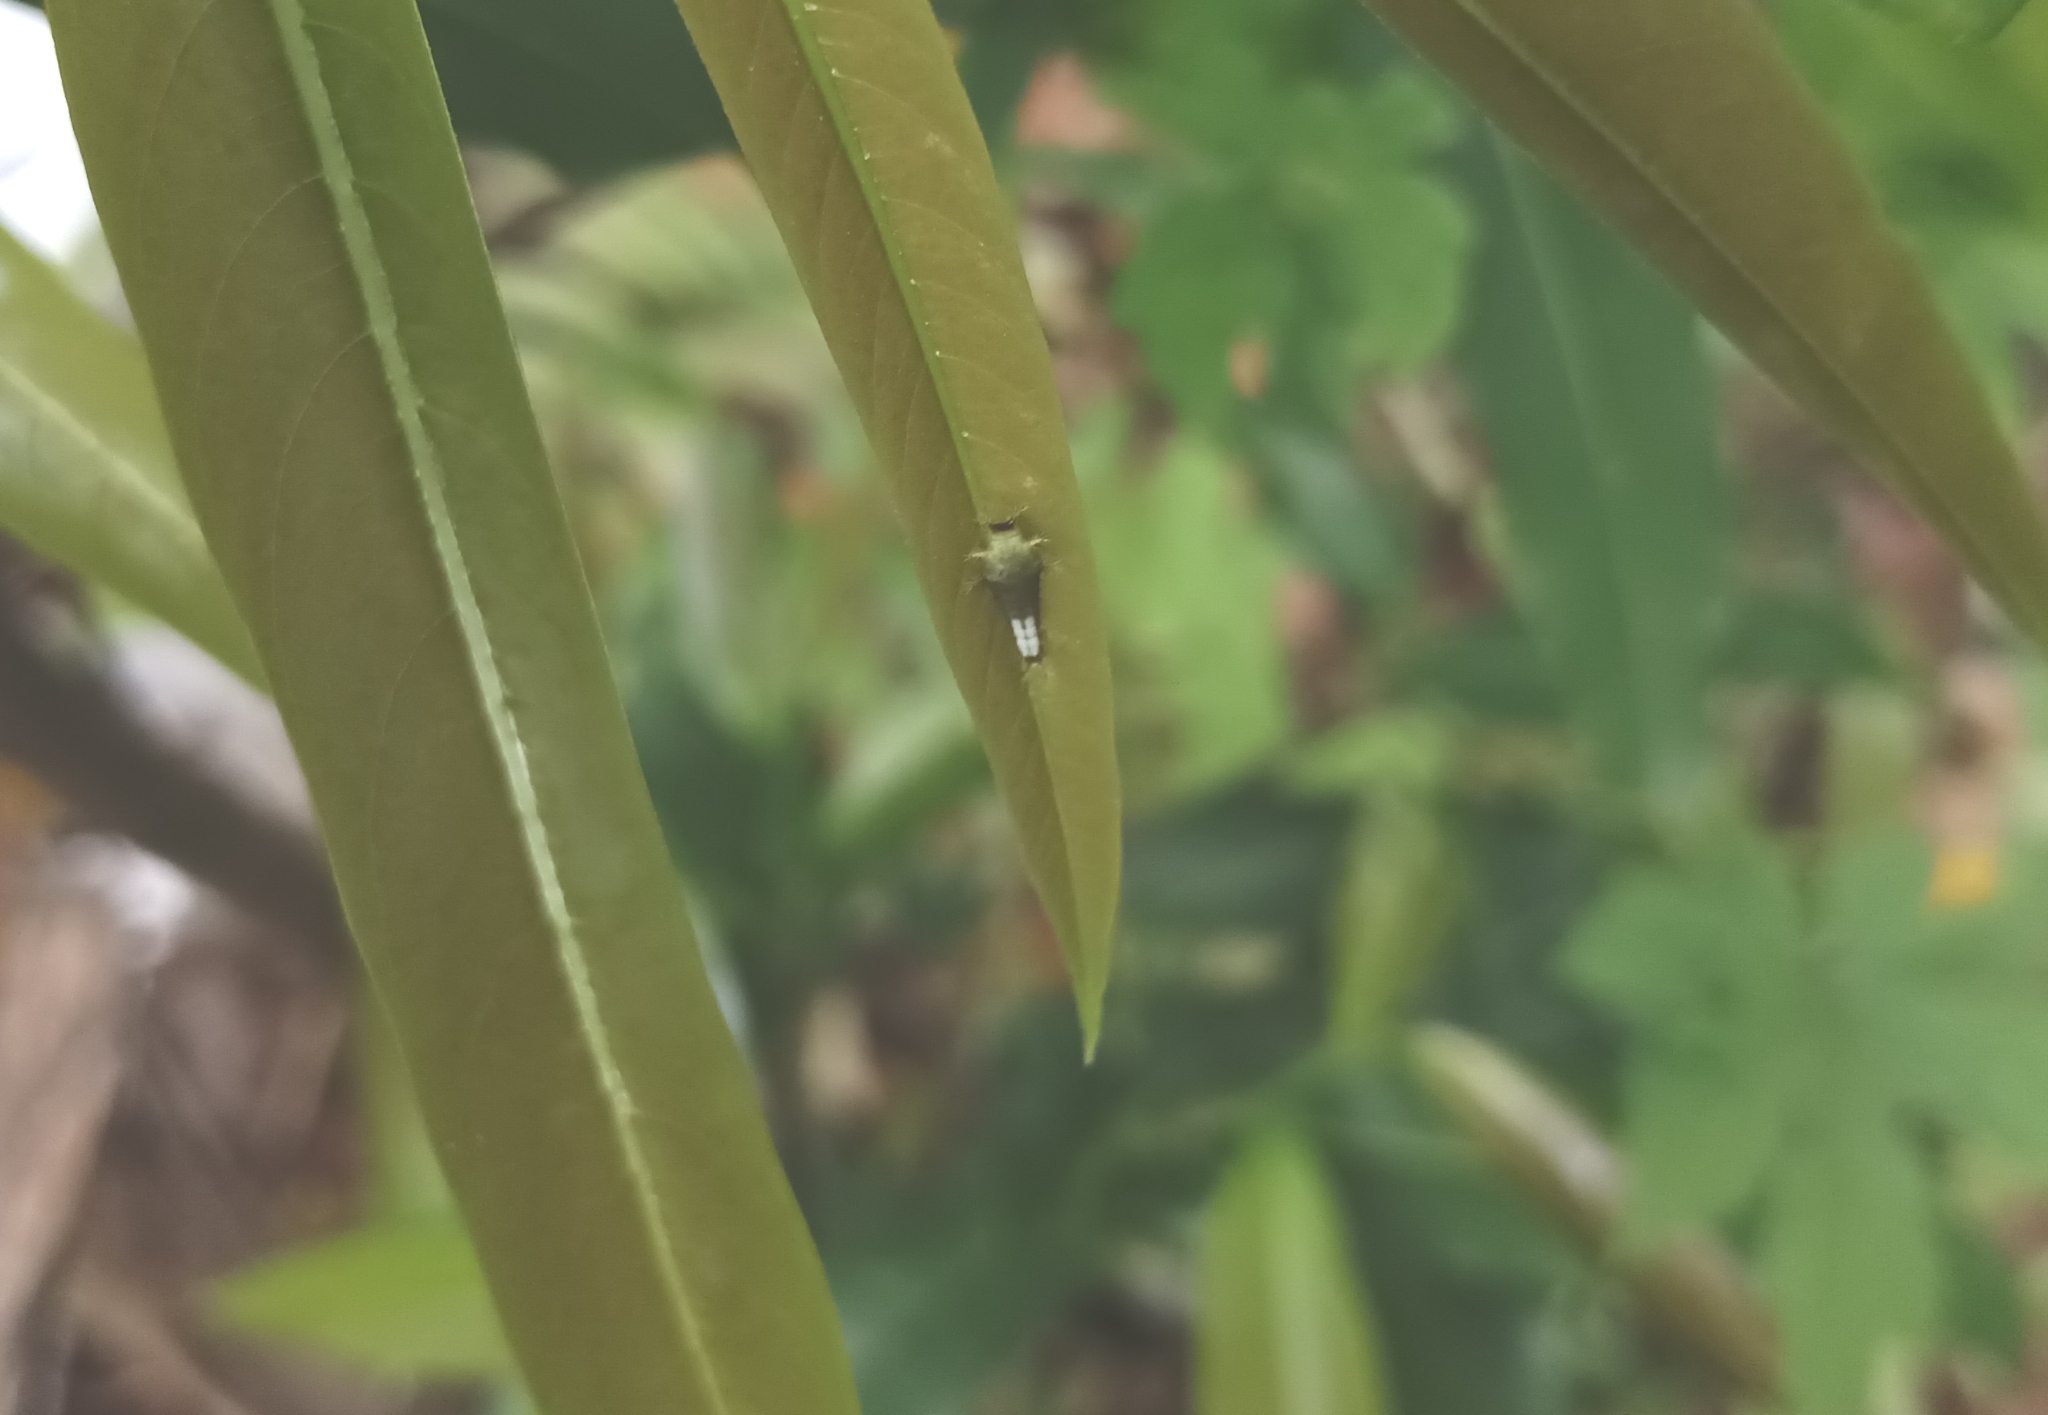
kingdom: Animalia
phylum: Arthropoda
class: Insecta
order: Lepidoptera
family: Papilionidae
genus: Graphium
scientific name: Graphium agamemnon
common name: Tailed jay
